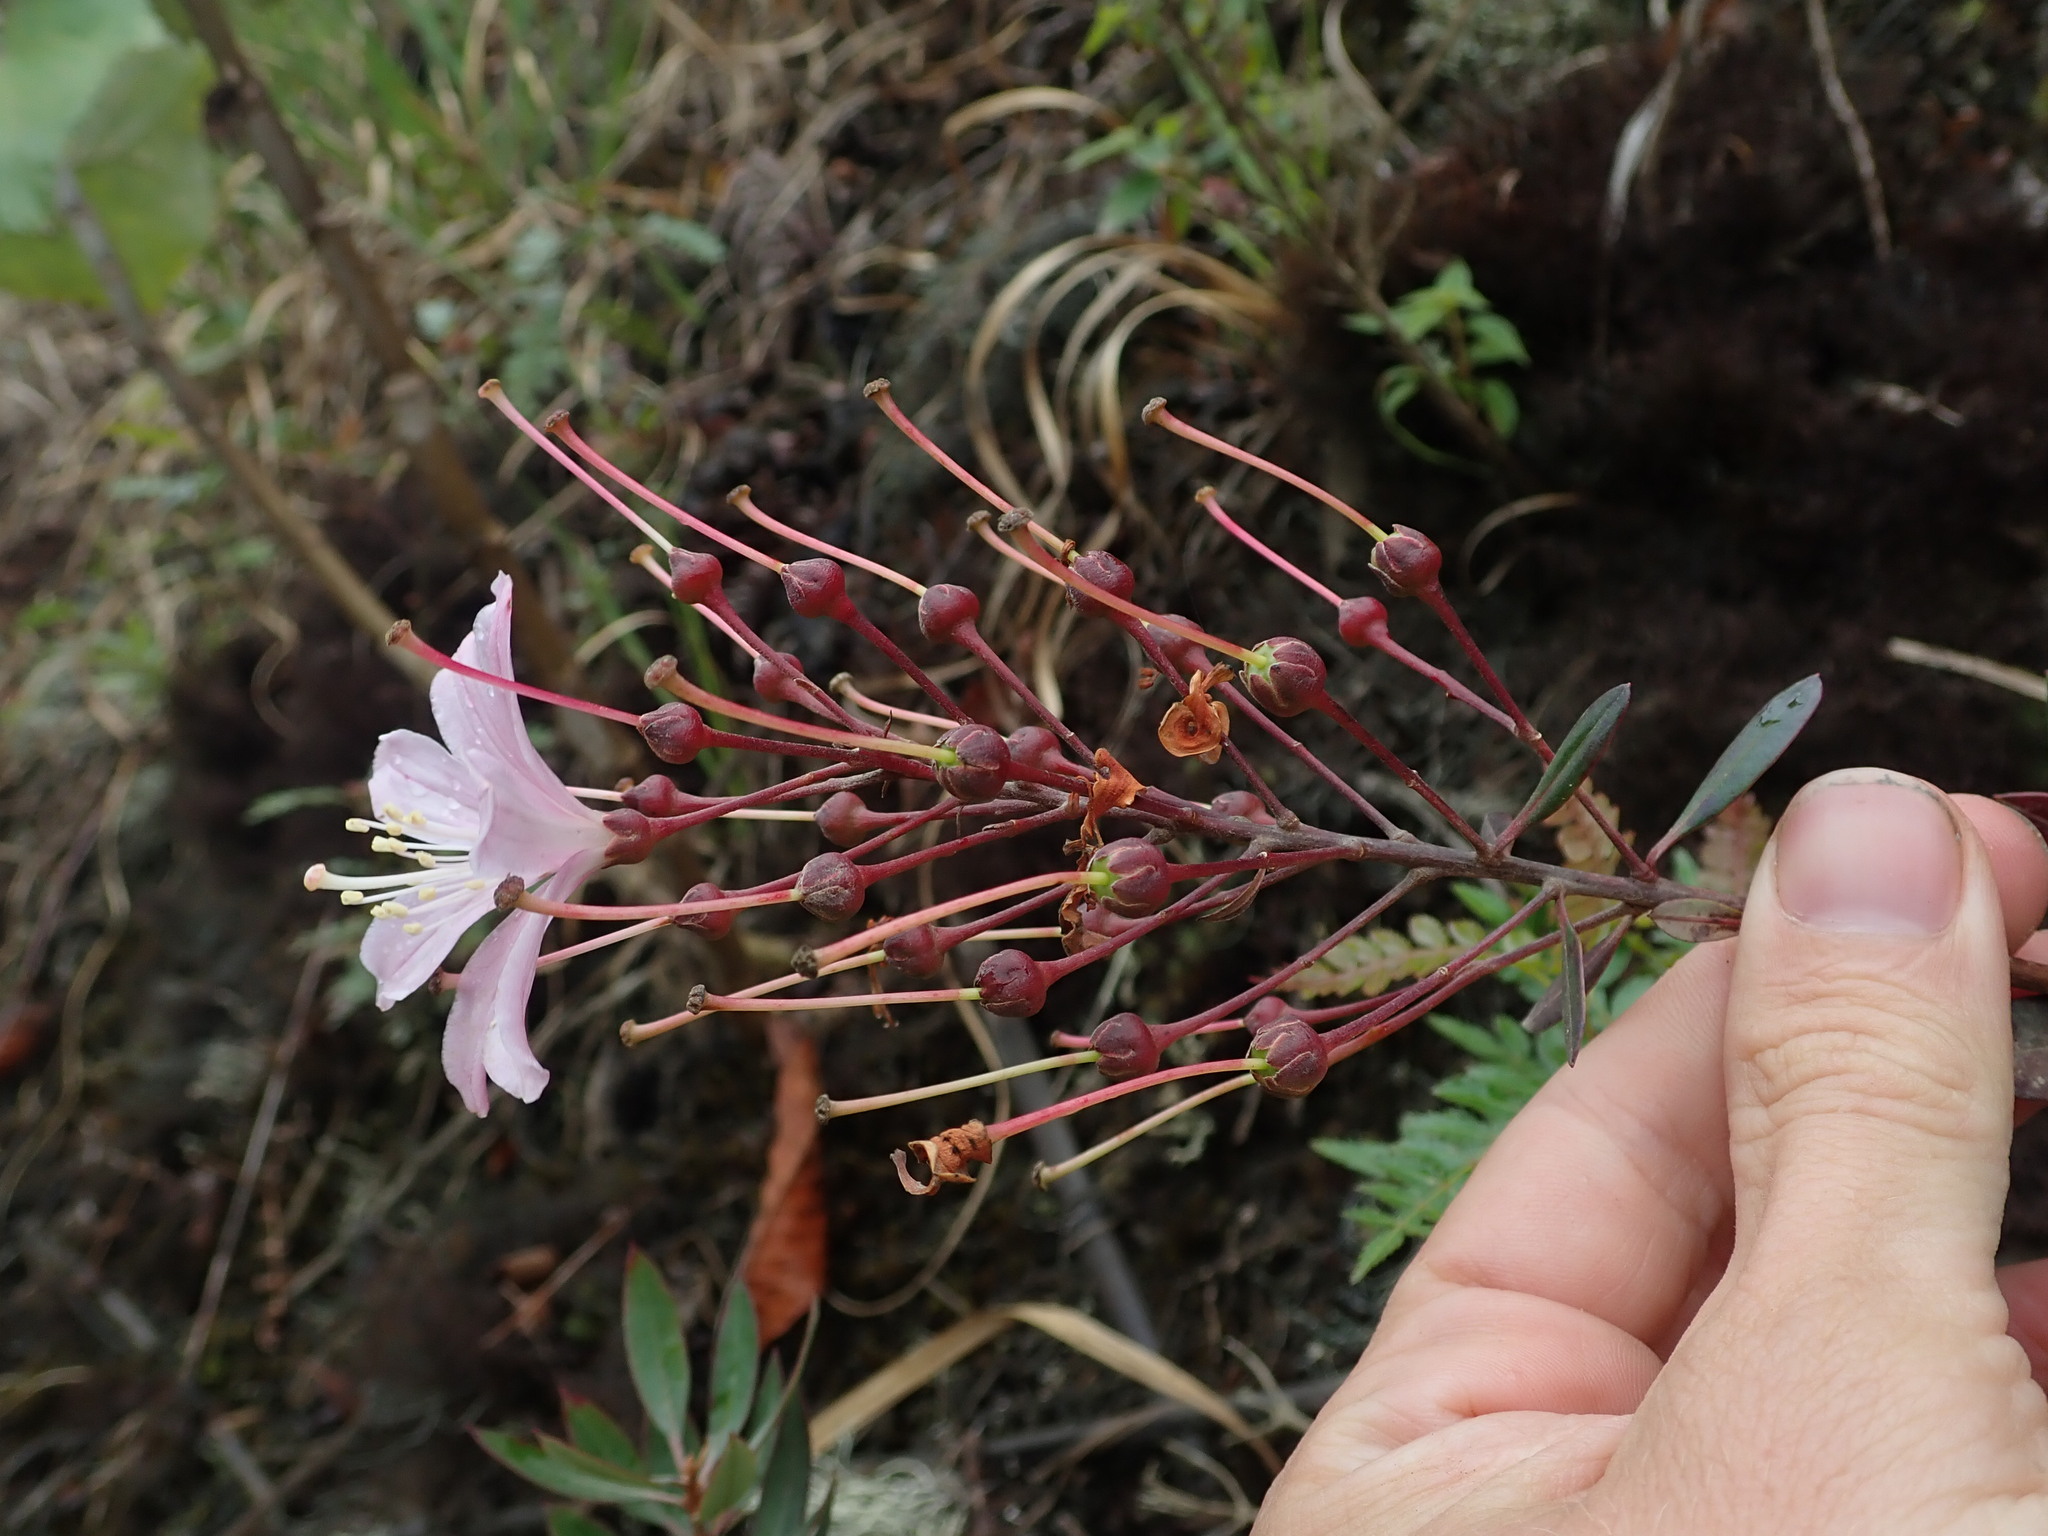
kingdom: Plantae
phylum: Tracheophyta
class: Magnoliopsida
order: Ericales
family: Ericaceae
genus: Bejaria
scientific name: Bejaria aestuans
